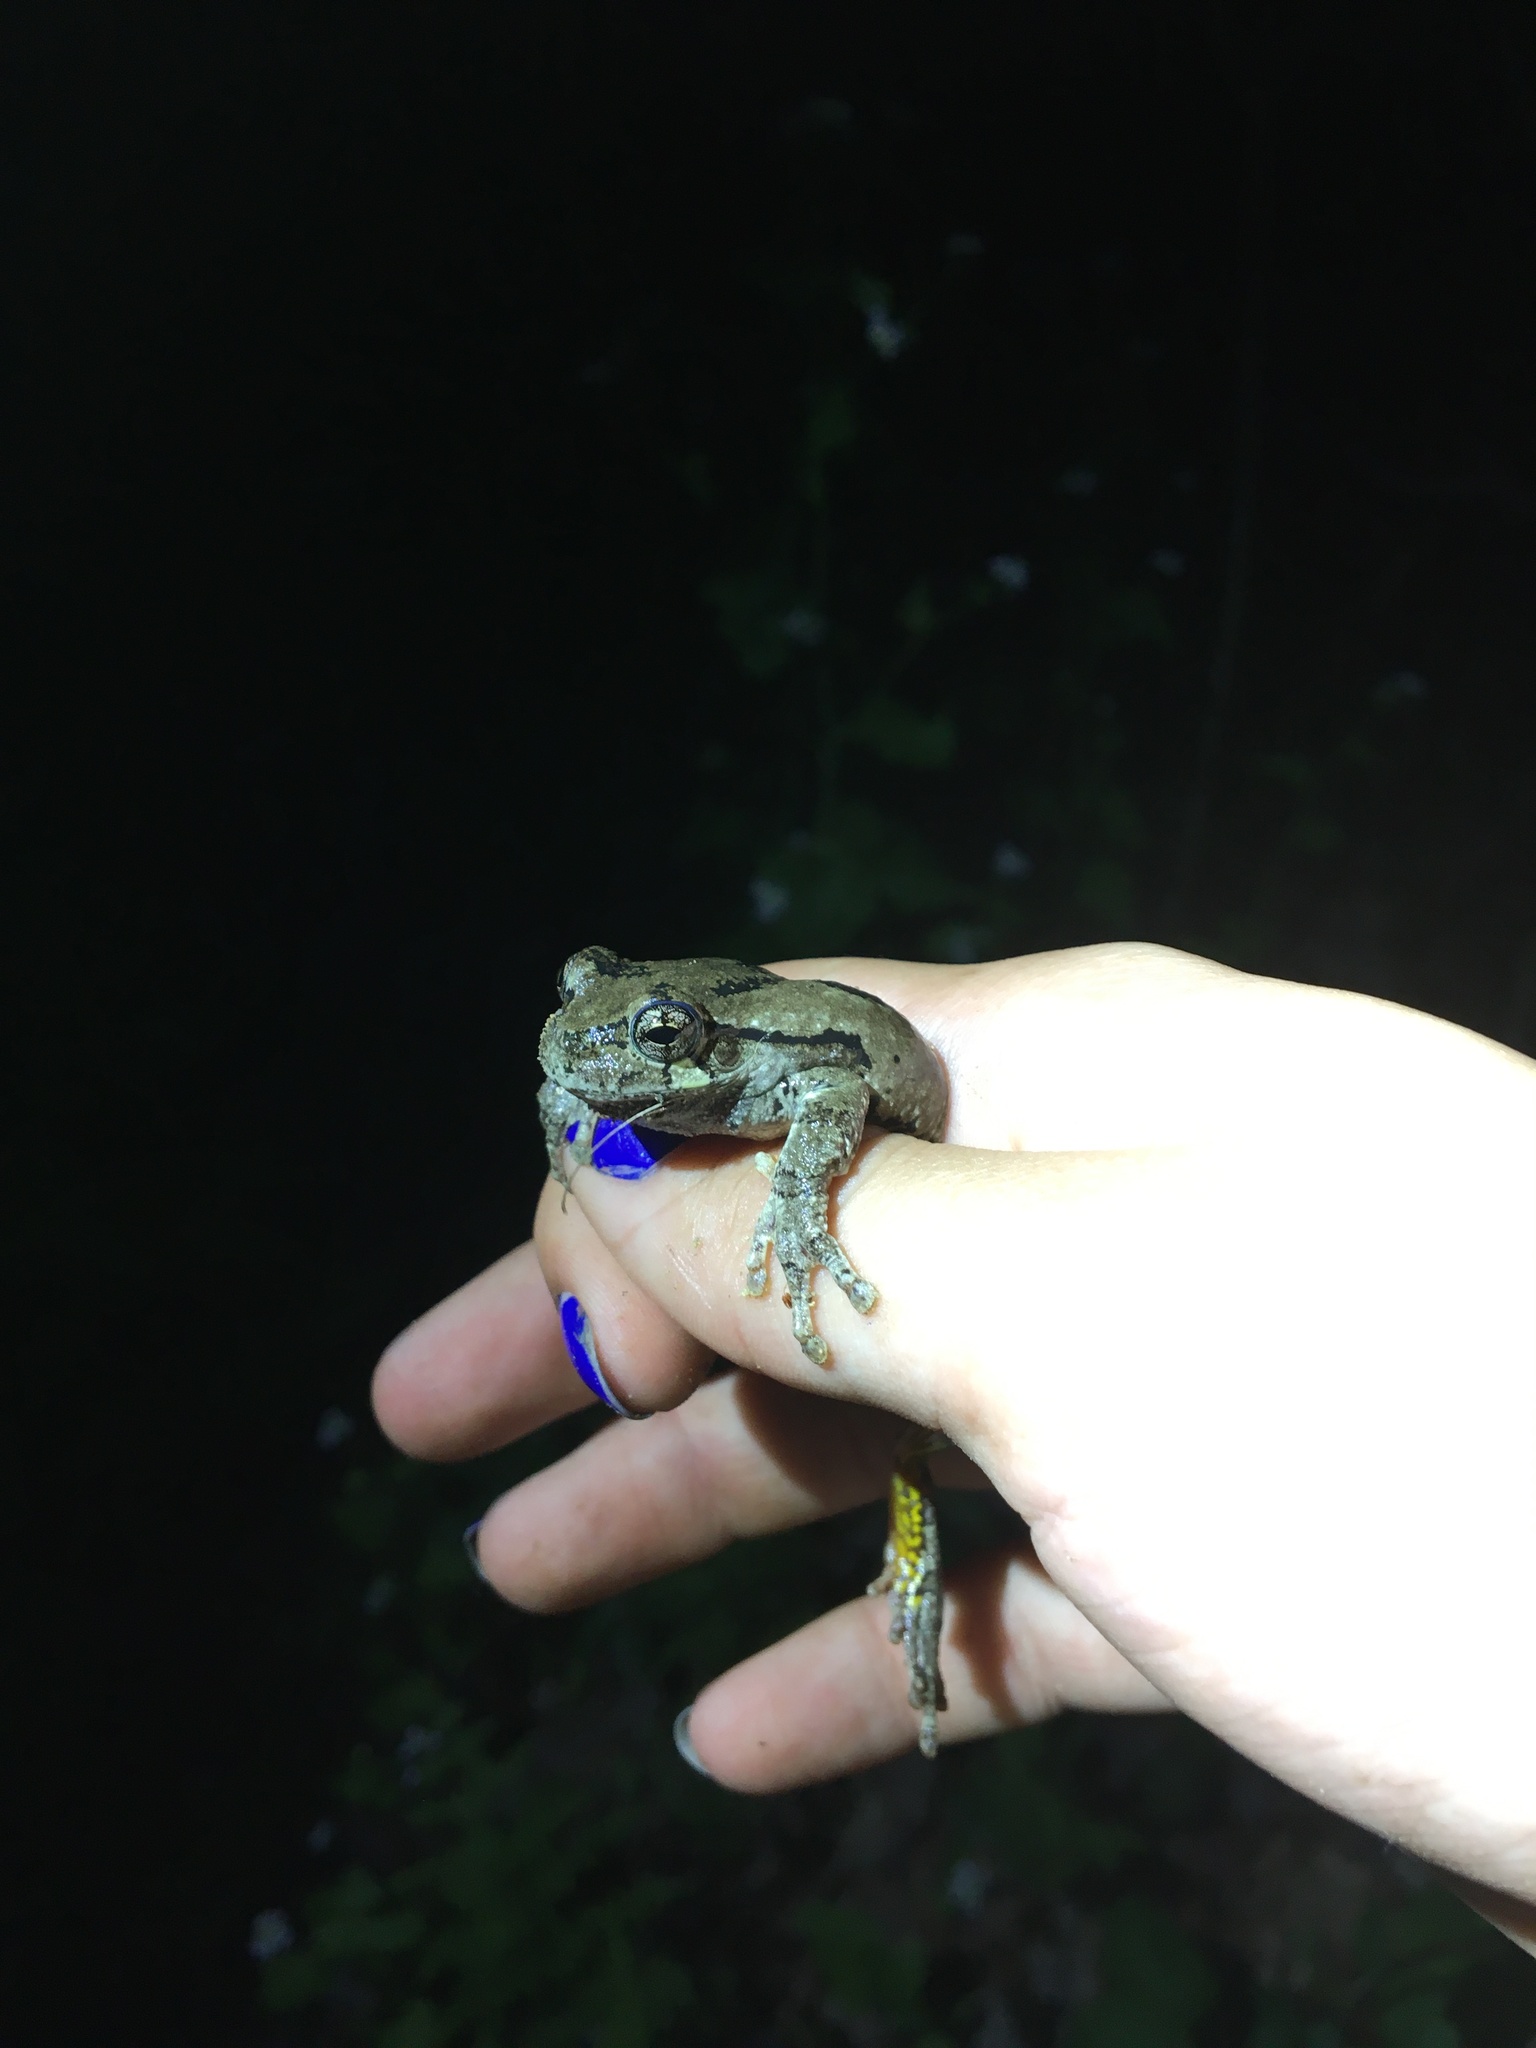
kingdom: Animalia
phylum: Chordata
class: Amphibia
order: Anura
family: Hylidae
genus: Dryophytes
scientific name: Dryophytes versicolor
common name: Gray treefrog
